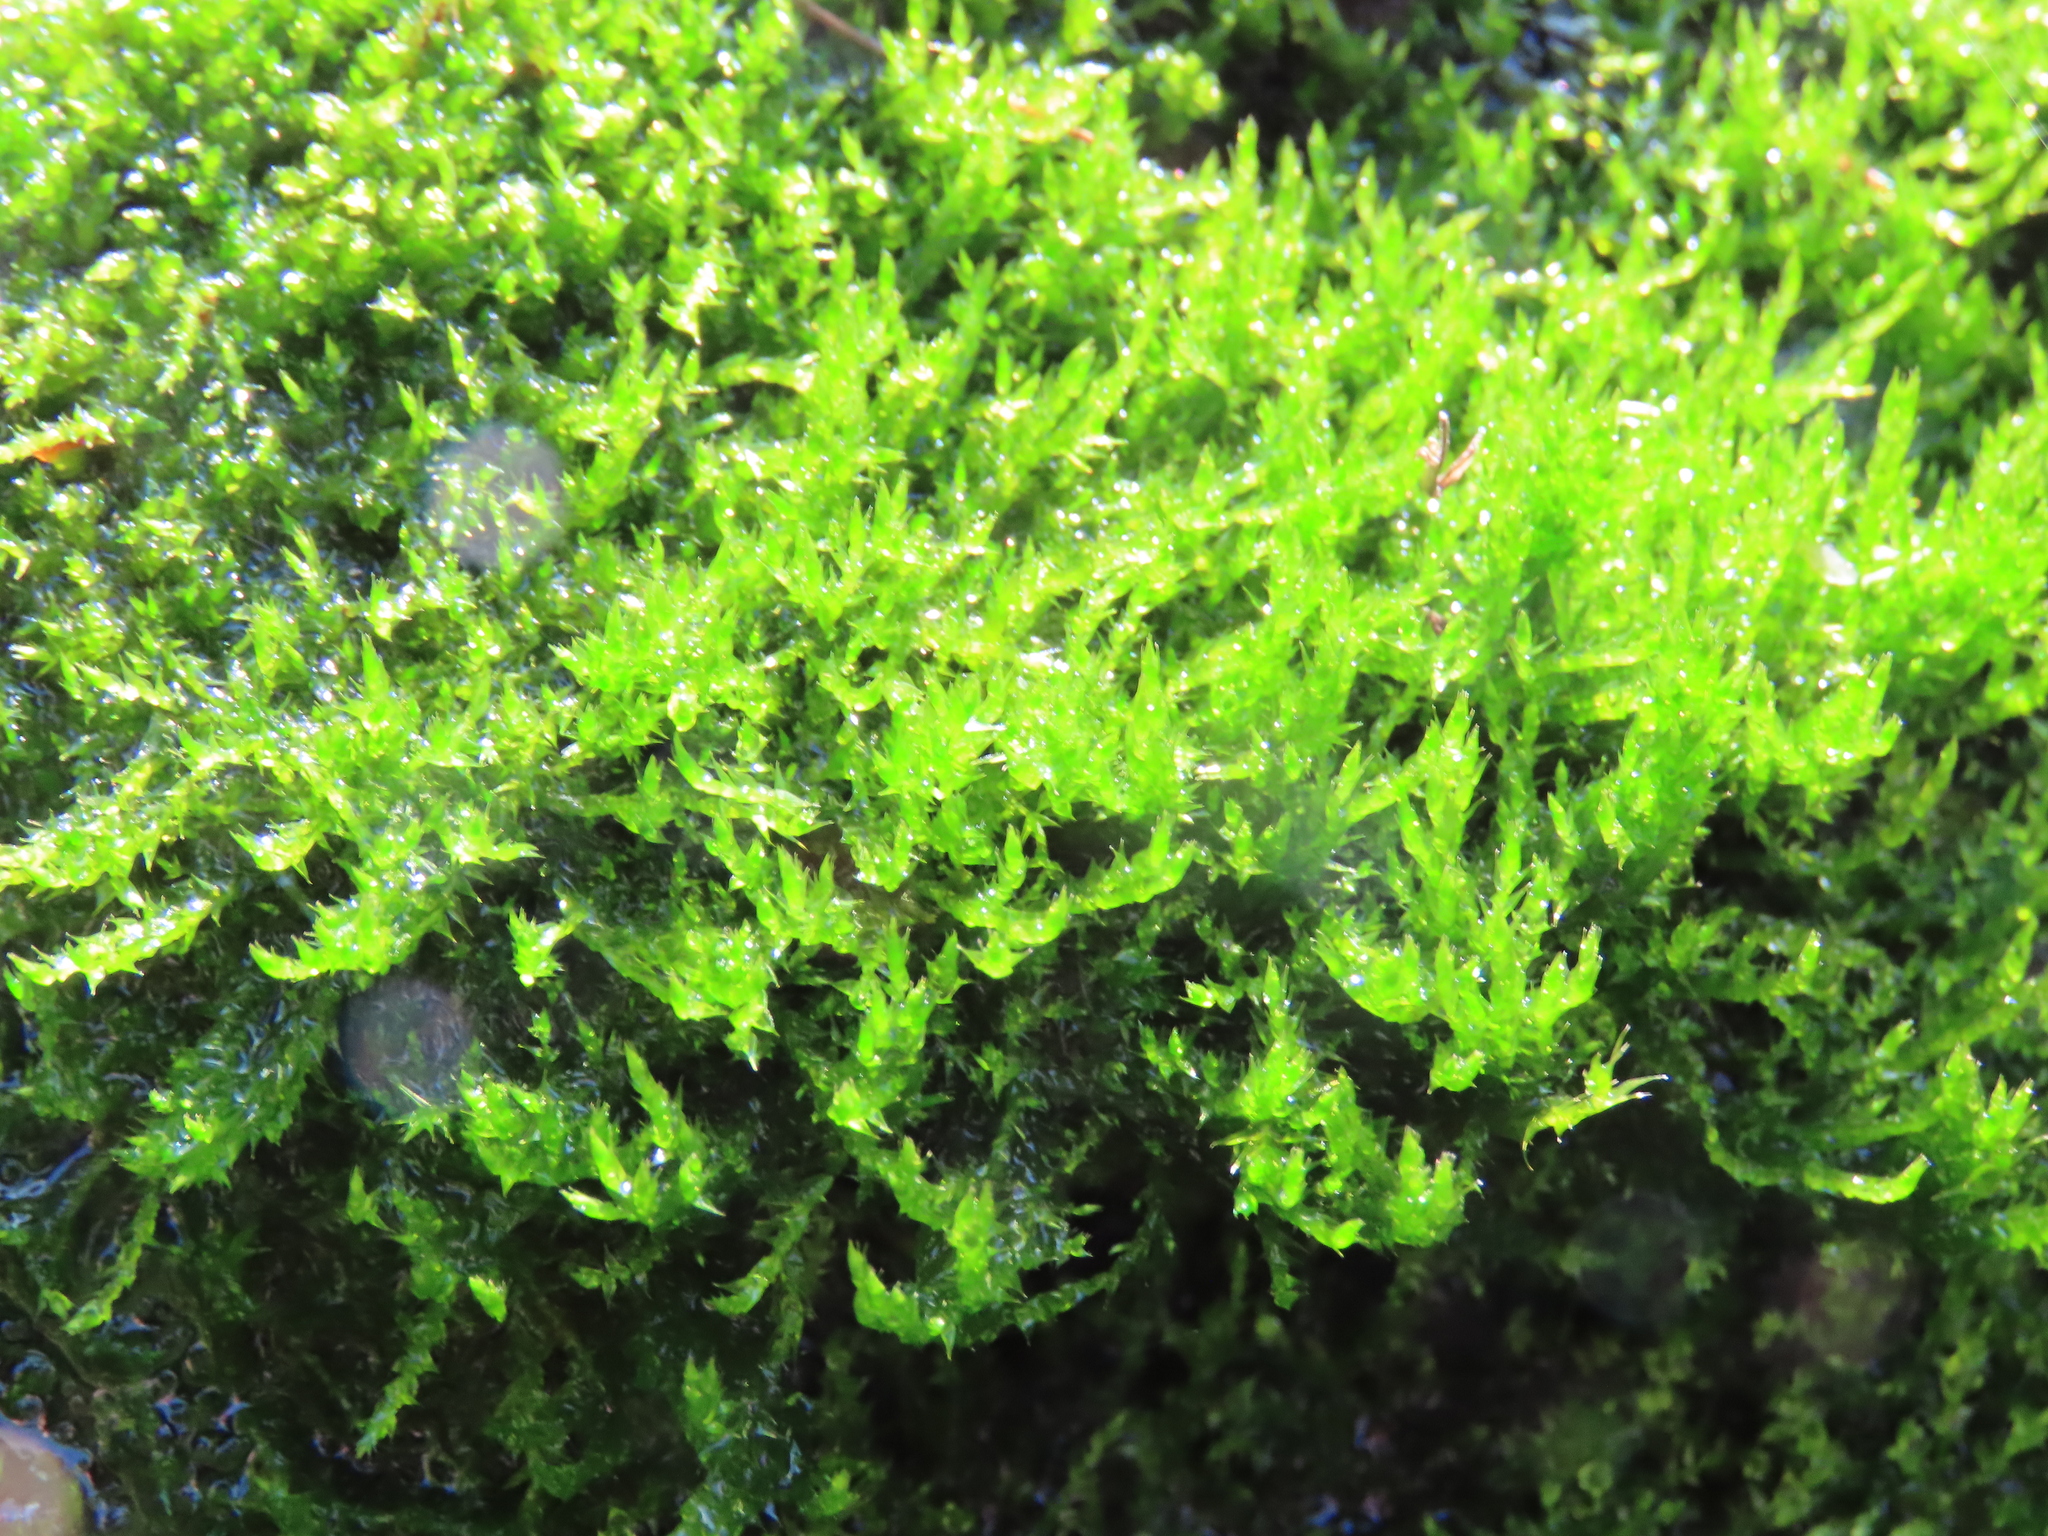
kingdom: Plantae
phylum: Bryophyta
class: Bryopsida
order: Hypnales
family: Amblystegiaceae
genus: Drepanocladus
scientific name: Drepanocladus aduncus
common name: Knieff's hook moss
